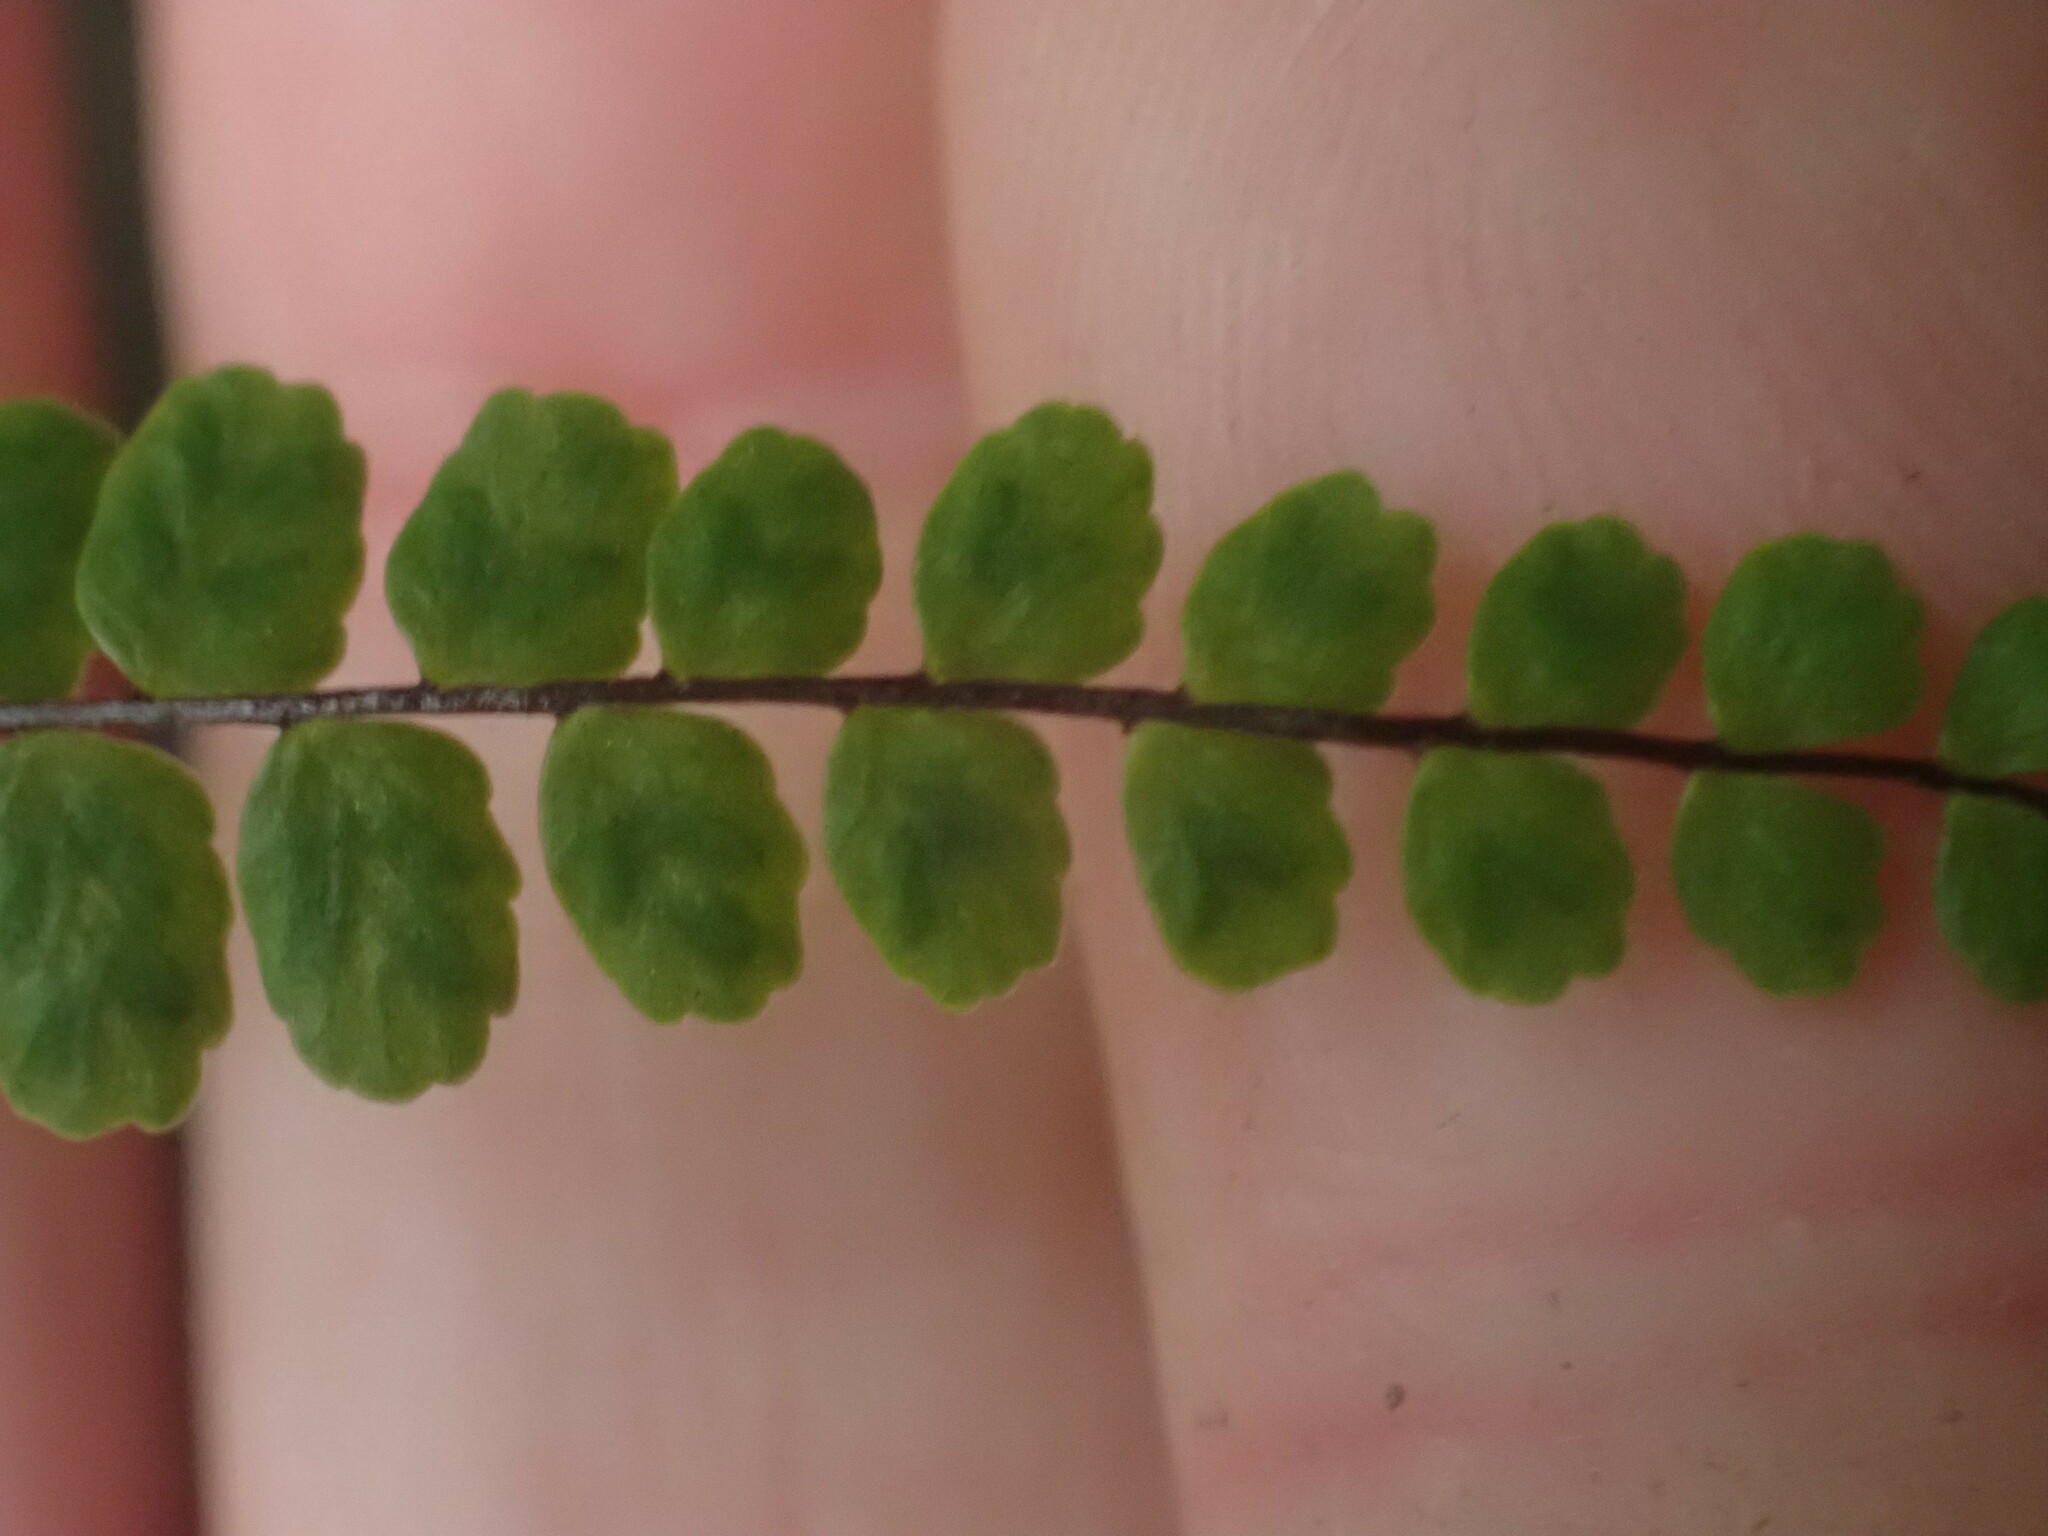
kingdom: Plantae
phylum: Tracheophyta
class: Polypodiopsida
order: Polypodiales
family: Aspleniaceae
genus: Asplenium
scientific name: Asplenium trichomanes
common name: Maidenhair spleenwort
